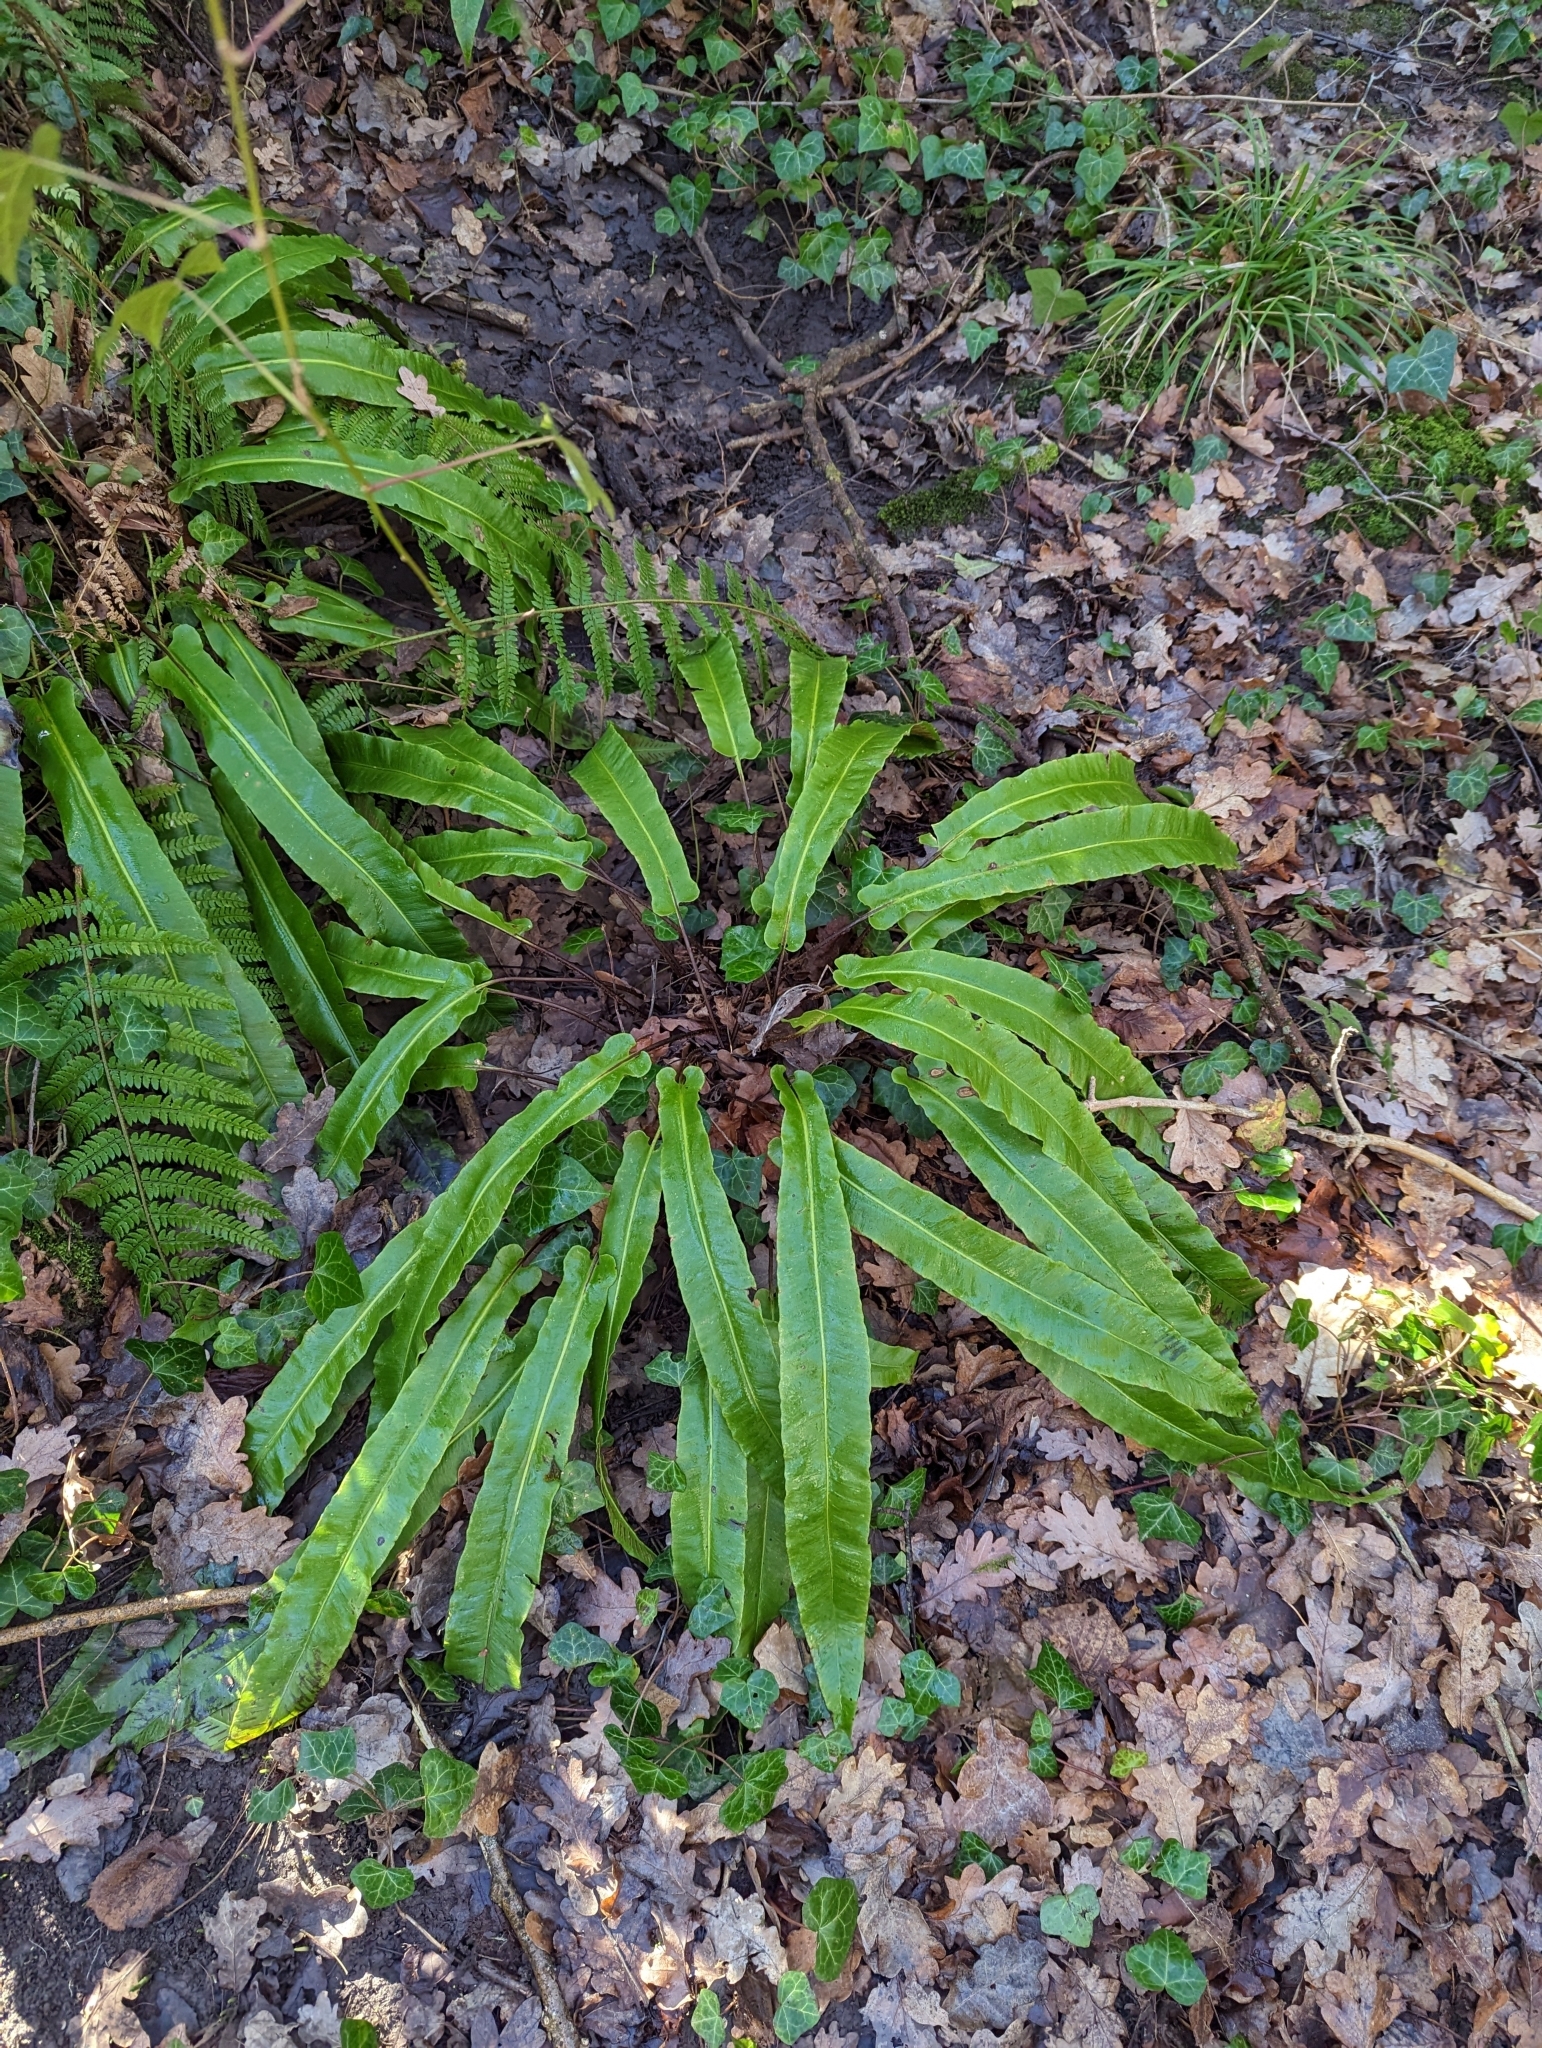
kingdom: Plantae
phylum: Tracheophyta
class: Polypodiopsida
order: Polypodiales
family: Aspleniaceae
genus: Asplenium
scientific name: Asplenium scolopendrium
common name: Hart's-tongue fern
